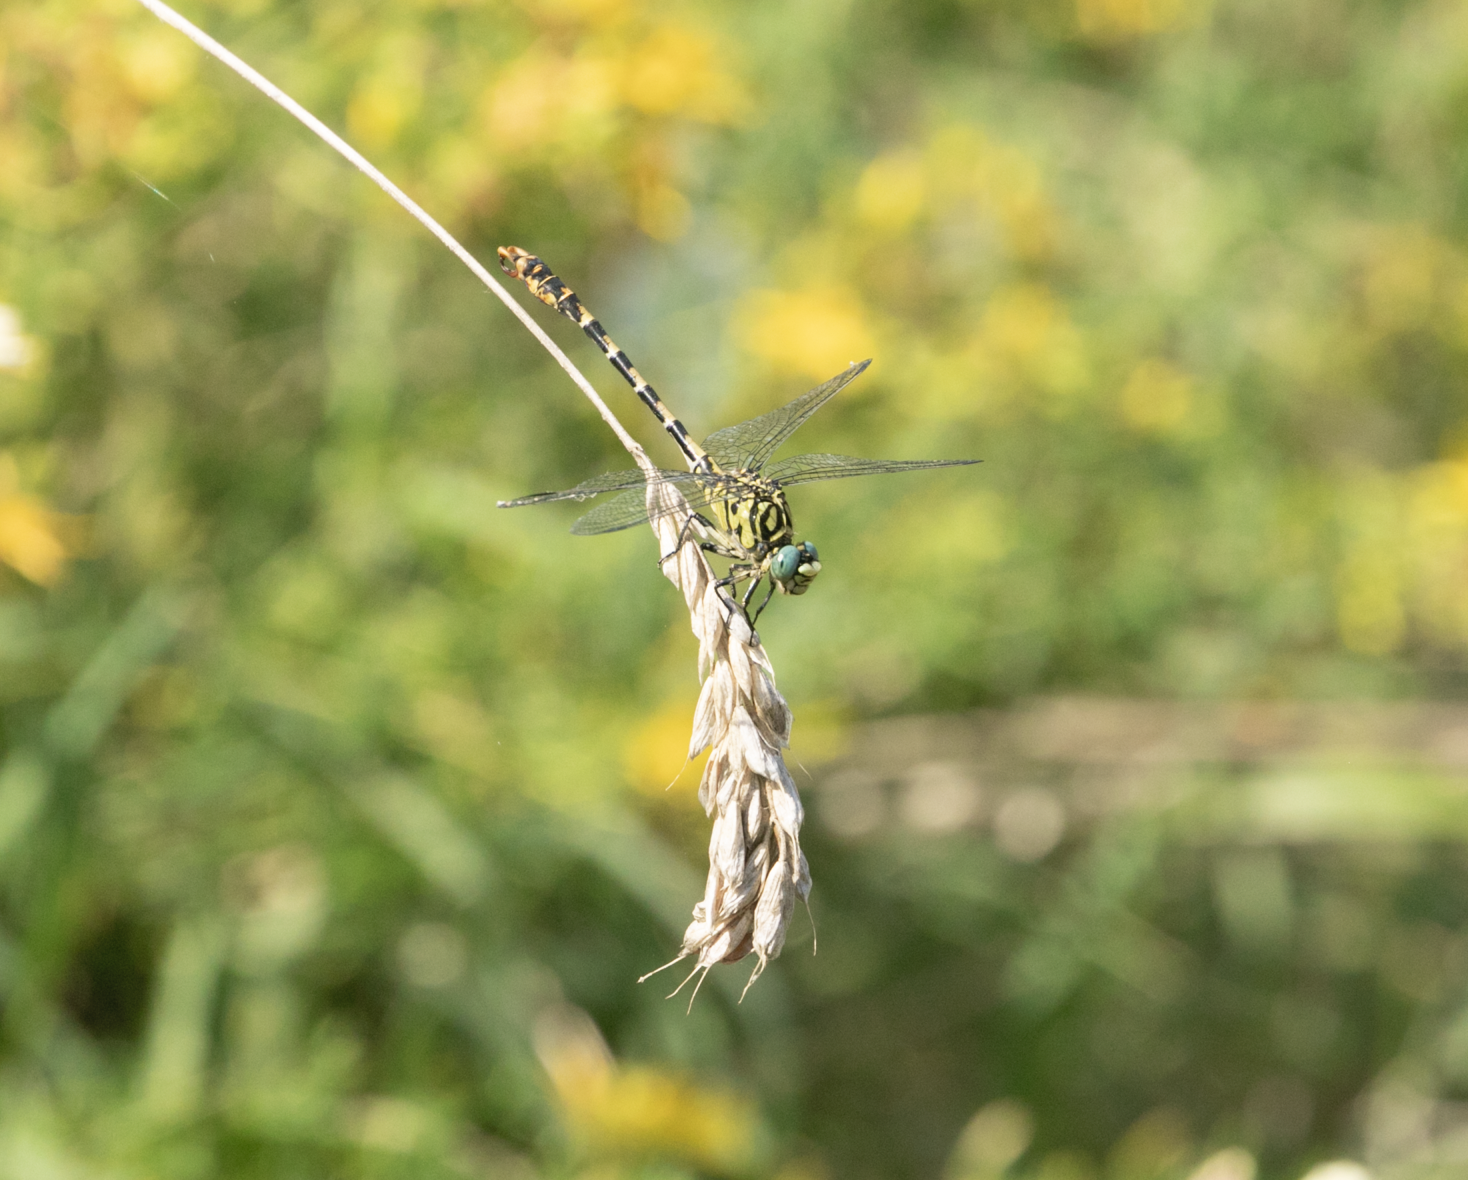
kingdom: Animalia
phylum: Arthropoda
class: Insecta
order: Odonata
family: Gomphidae
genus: Onychogomphus
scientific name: Onychogomphus forcipatus
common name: Small pincertail
